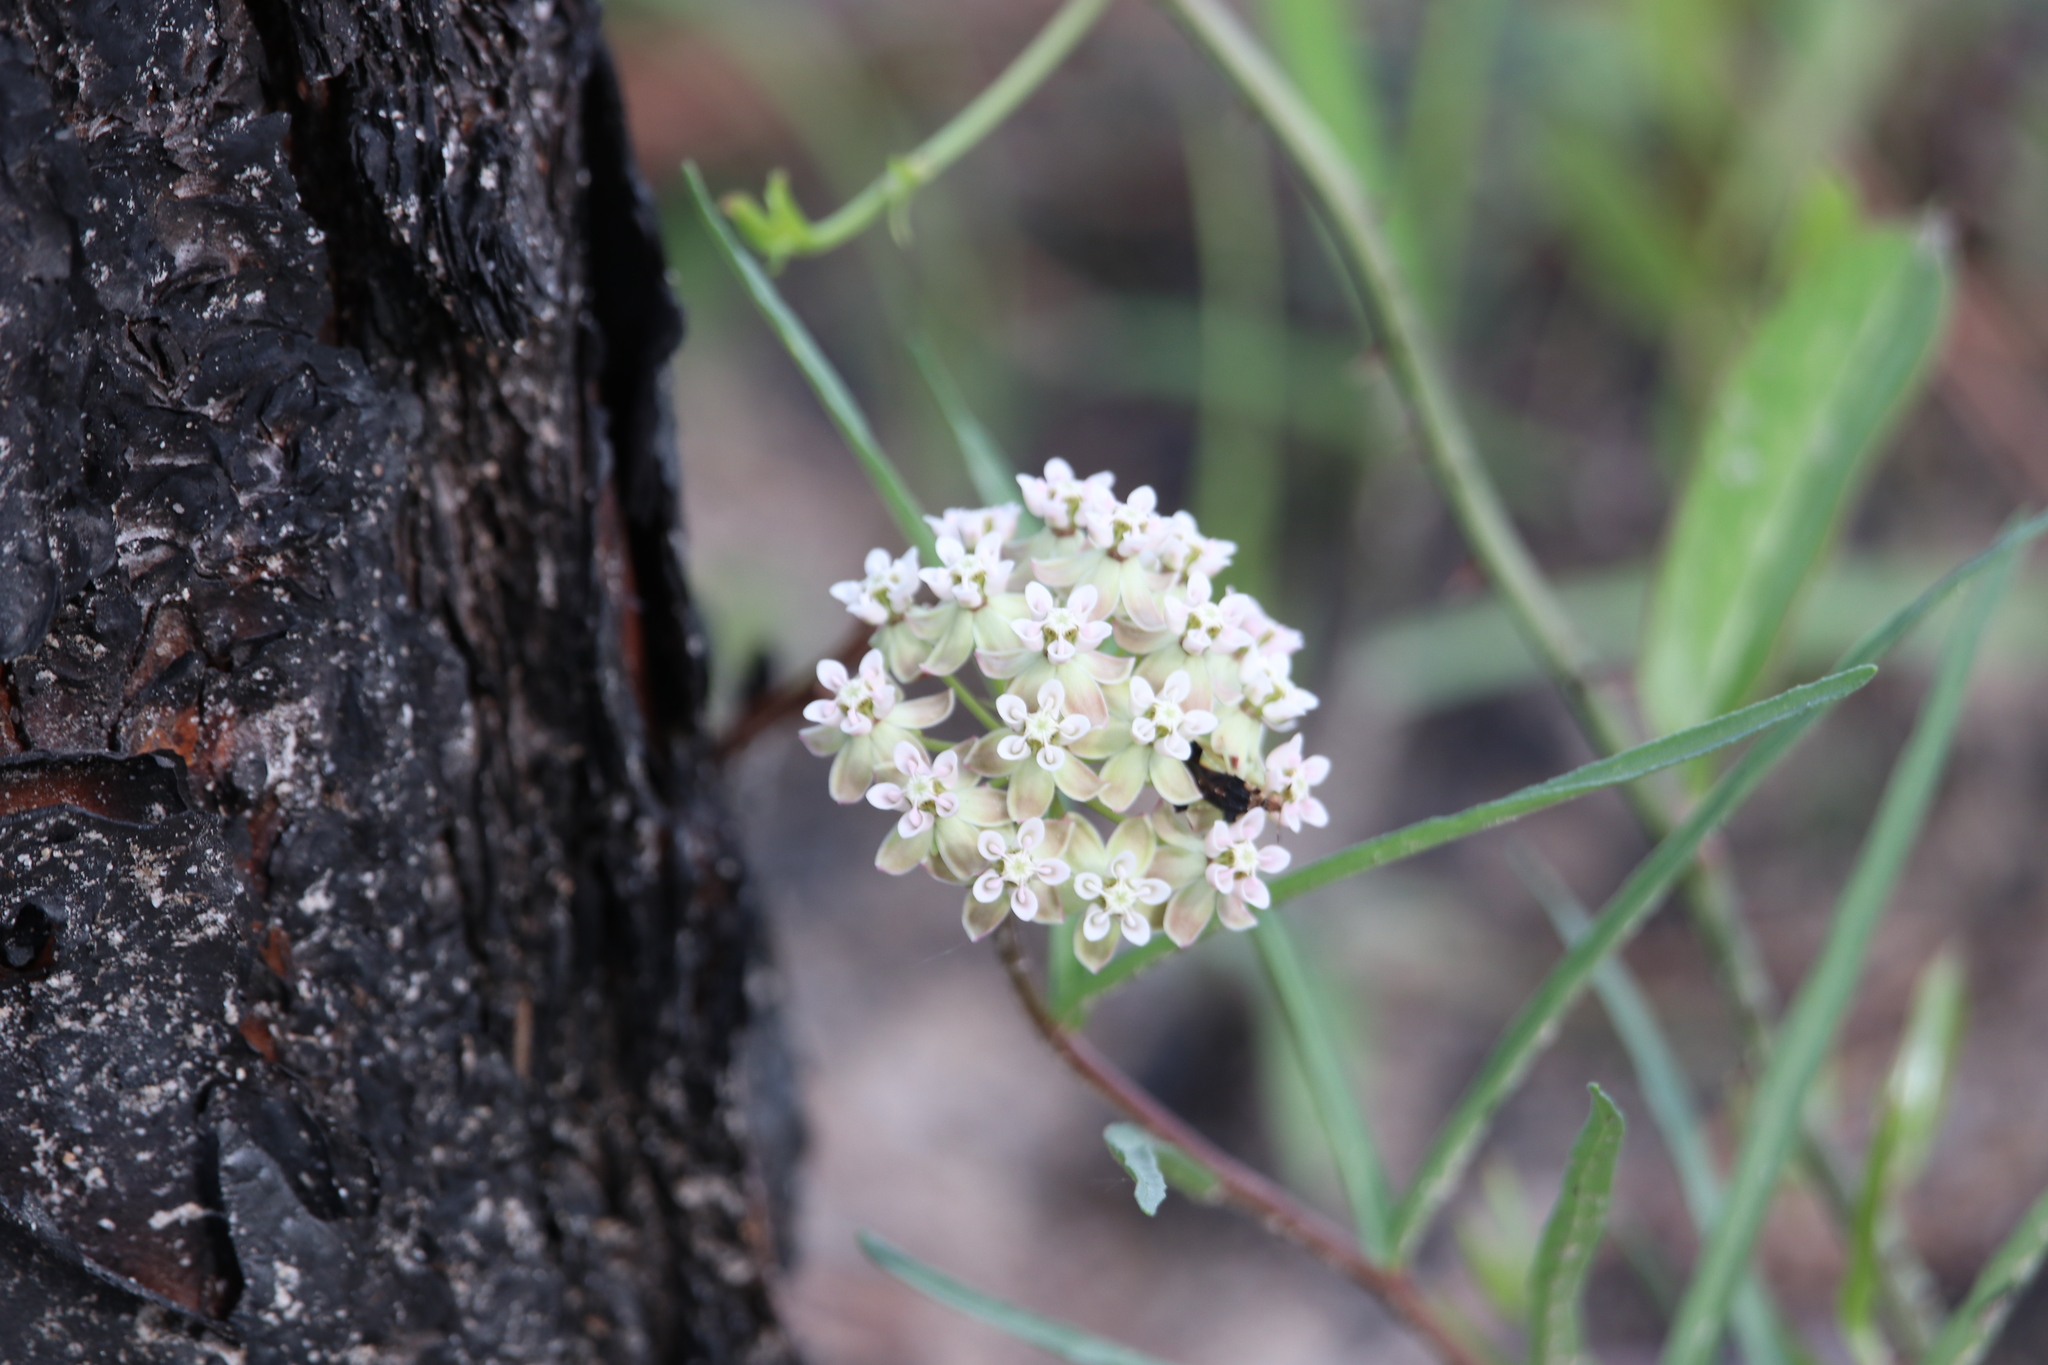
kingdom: Plantae
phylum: Tracheophyta
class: Magnoliopsida
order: Gentianales
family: Apocynaceae
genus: Asclepias
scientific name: Asclepias michauxii
